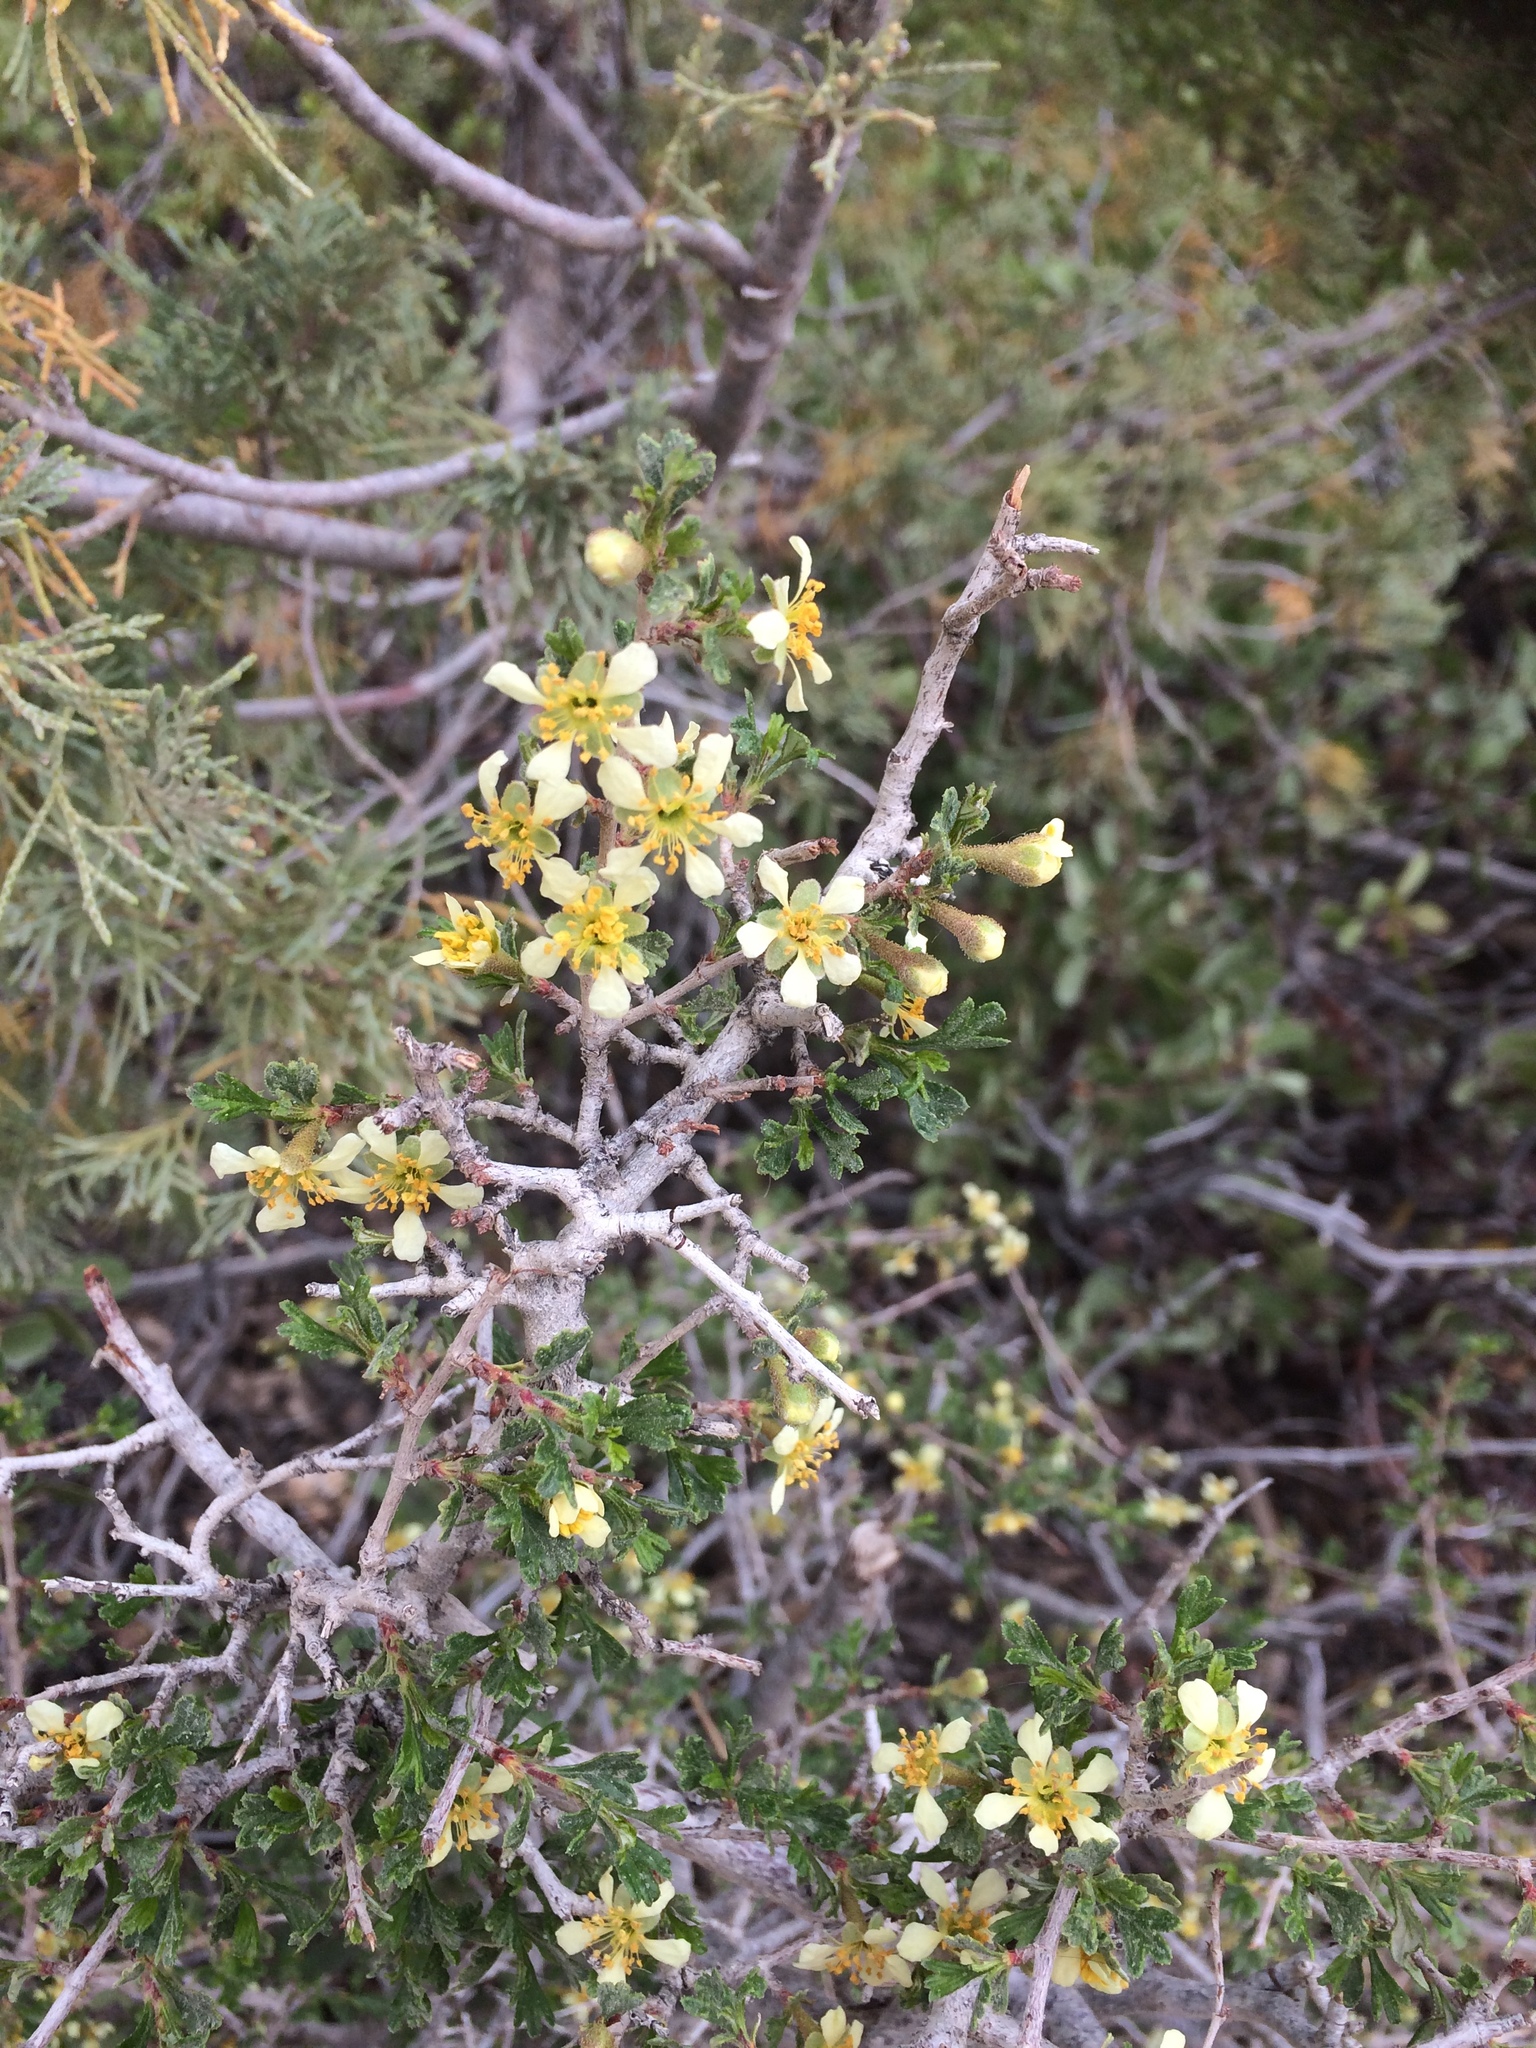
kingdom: Plantae
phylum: Tracheophyta
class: Magnoliopsida
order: Rosales
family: Rosaceae
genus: Purshia
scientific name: Purshia tridentata
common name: Antelope bitterbrush
